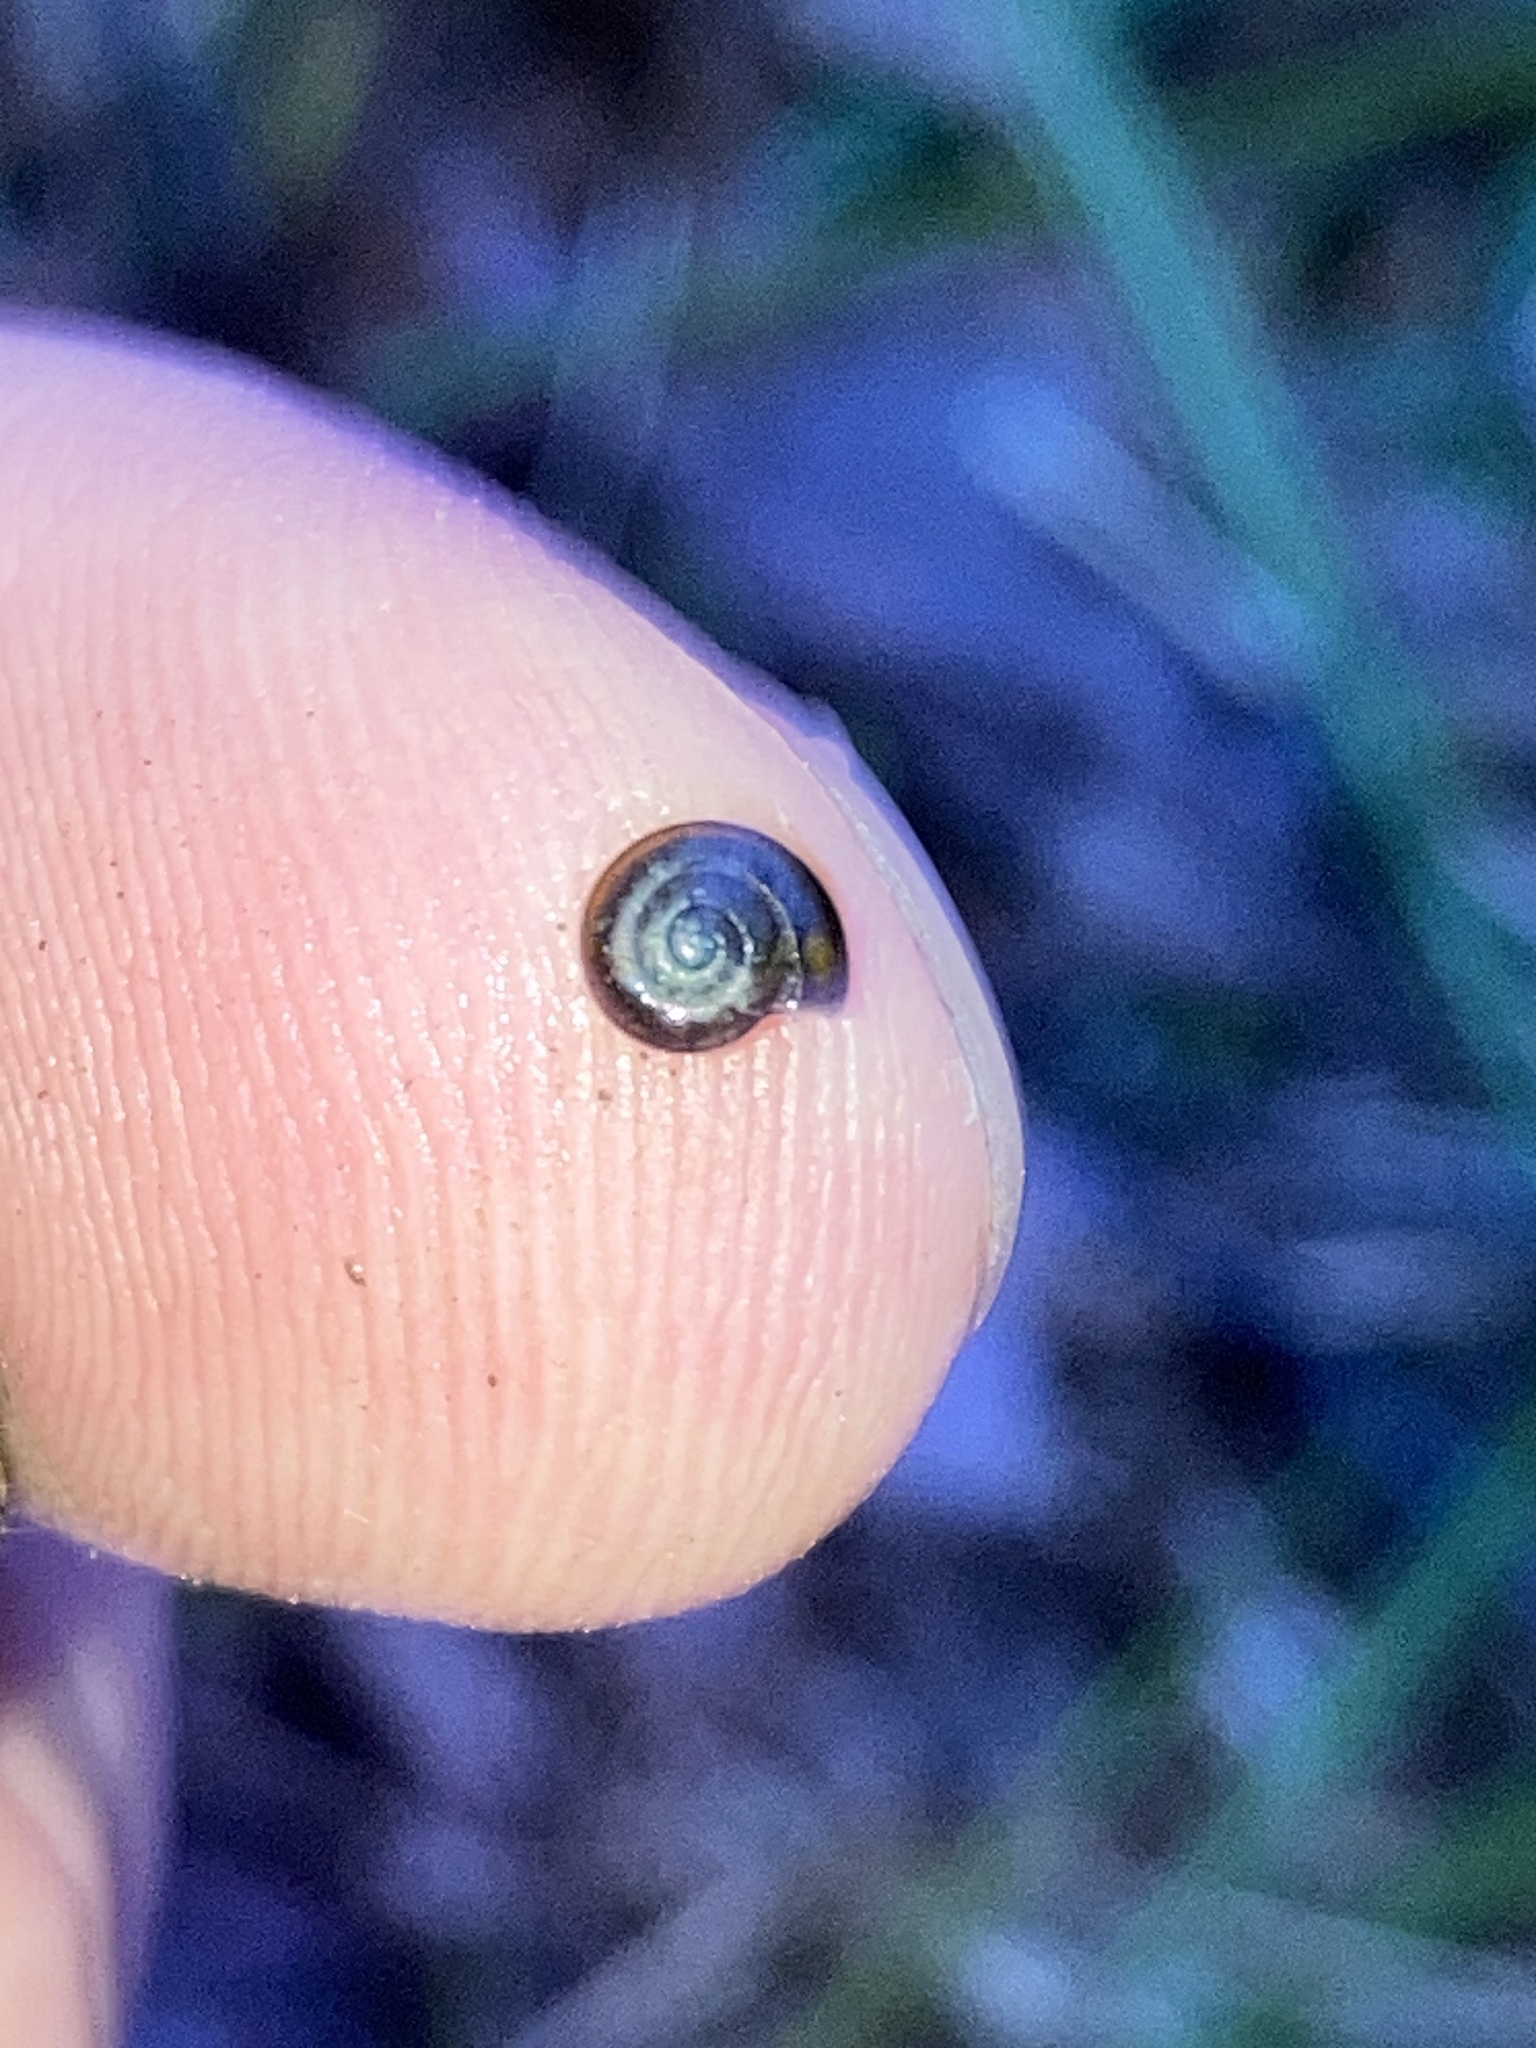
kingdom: Animalia
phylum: Mollusca
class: Gastropoda
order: Stylommatophora
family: Gastrodontidae
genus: Zonitoides
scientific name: Zonitoides nitidus
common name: Shiny glass snail
